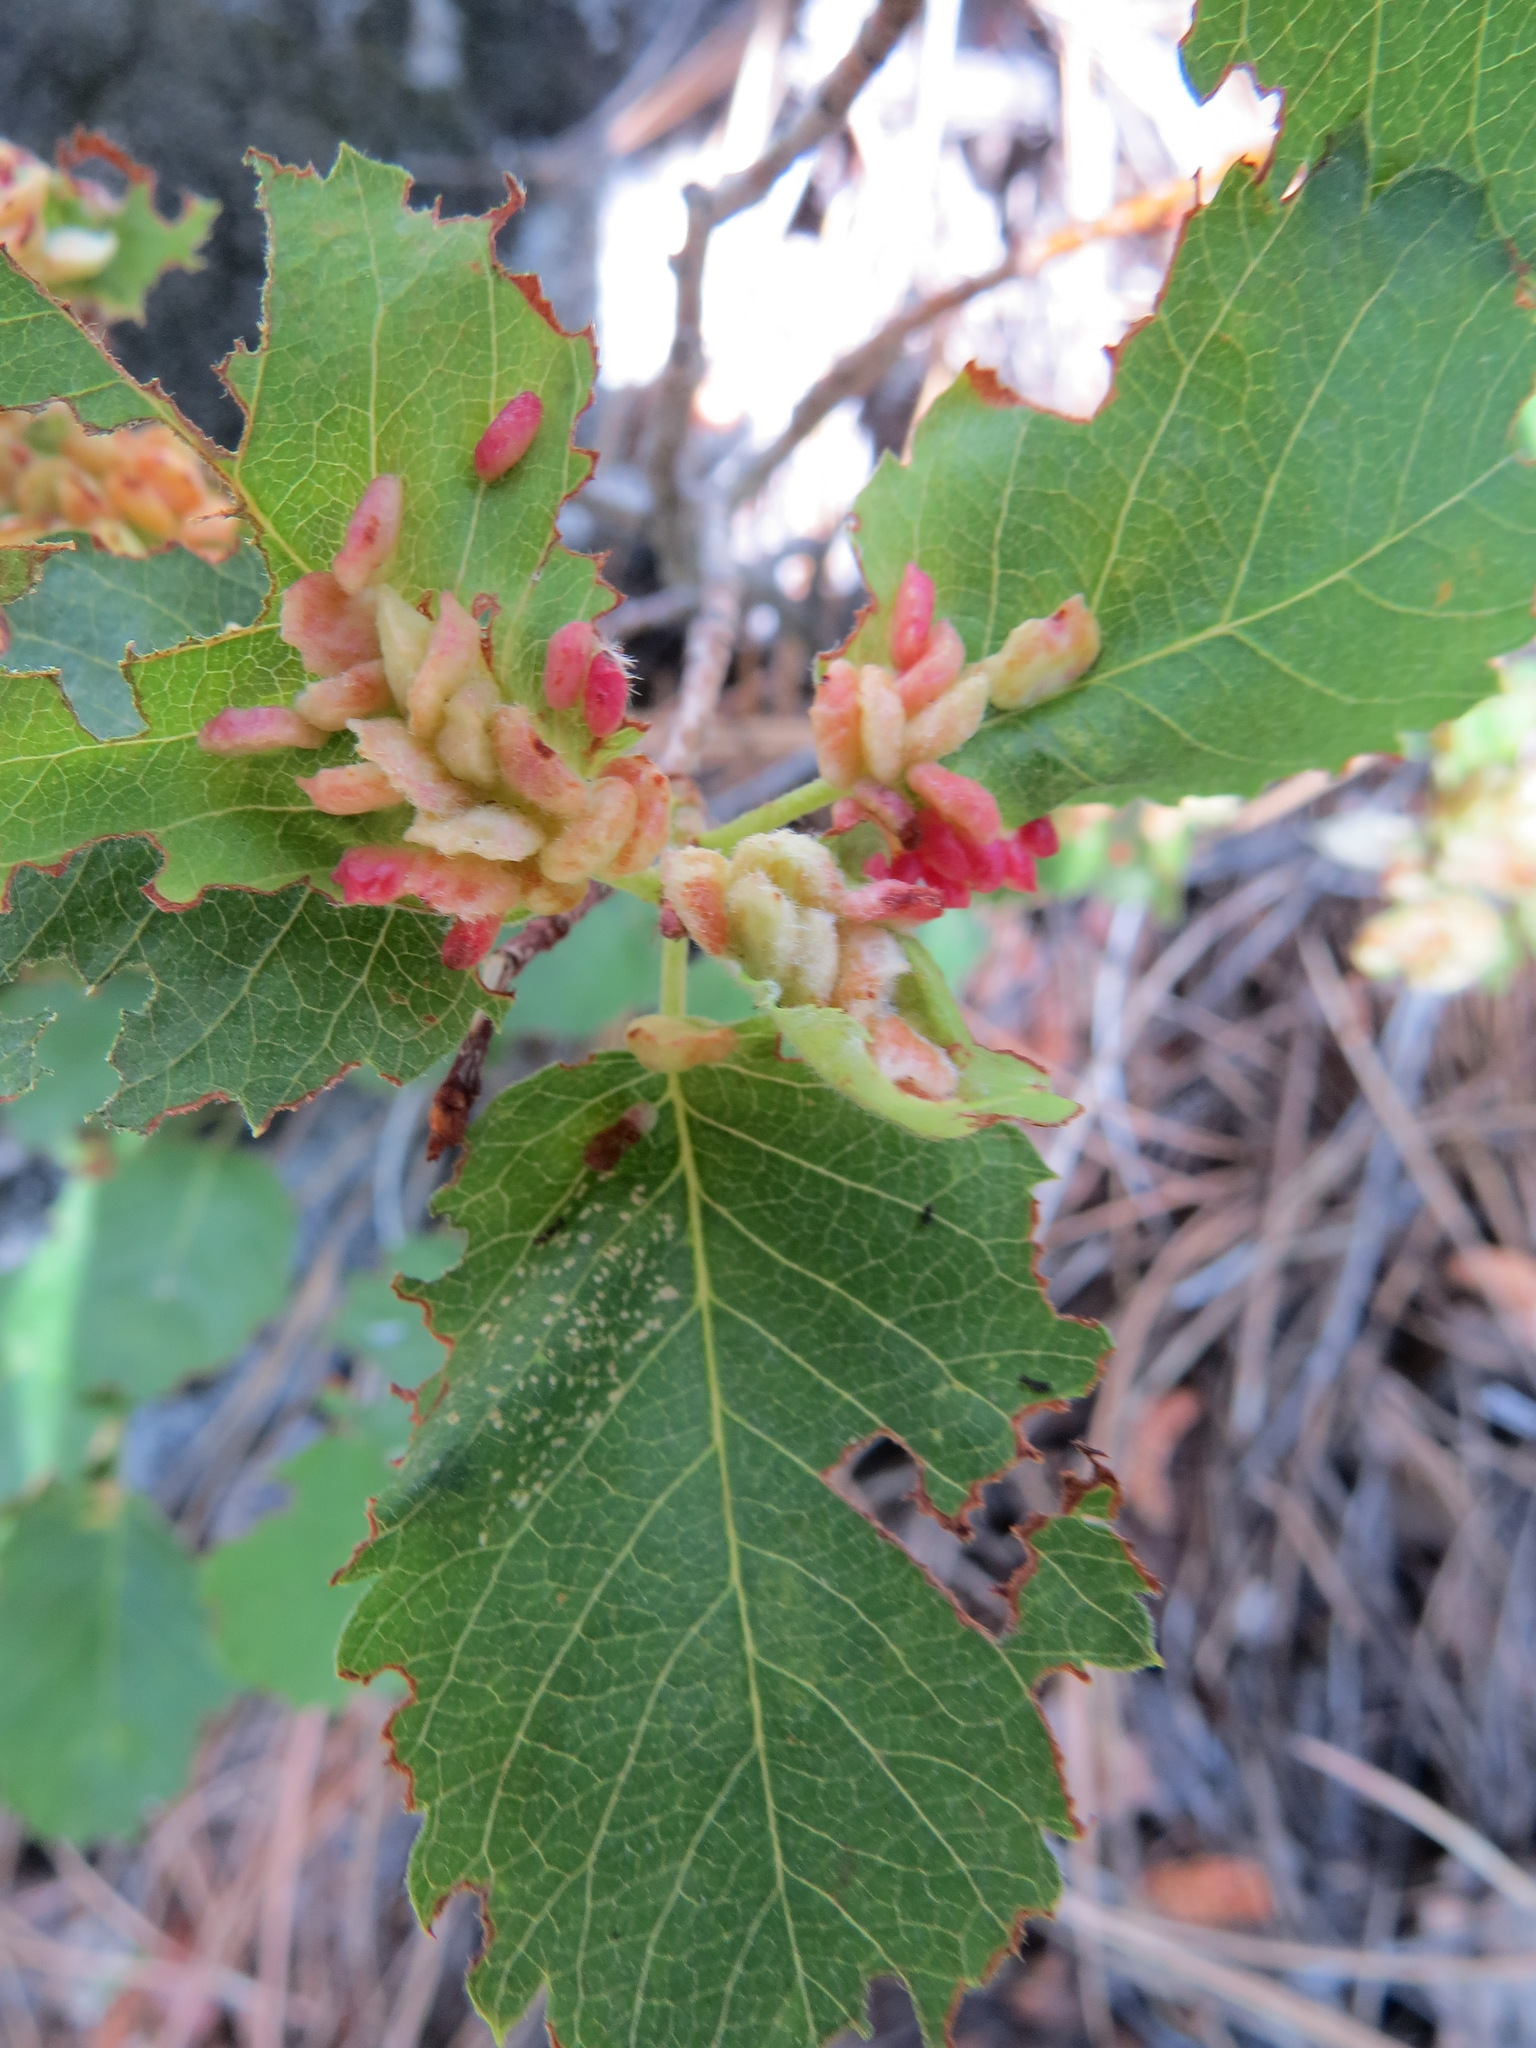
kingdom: Animalia
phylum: Arthropoda
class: Insecta
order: Diptera
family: Cecidomyiidae
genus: Blaesodiplosis
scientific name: Blaesodiplosis
